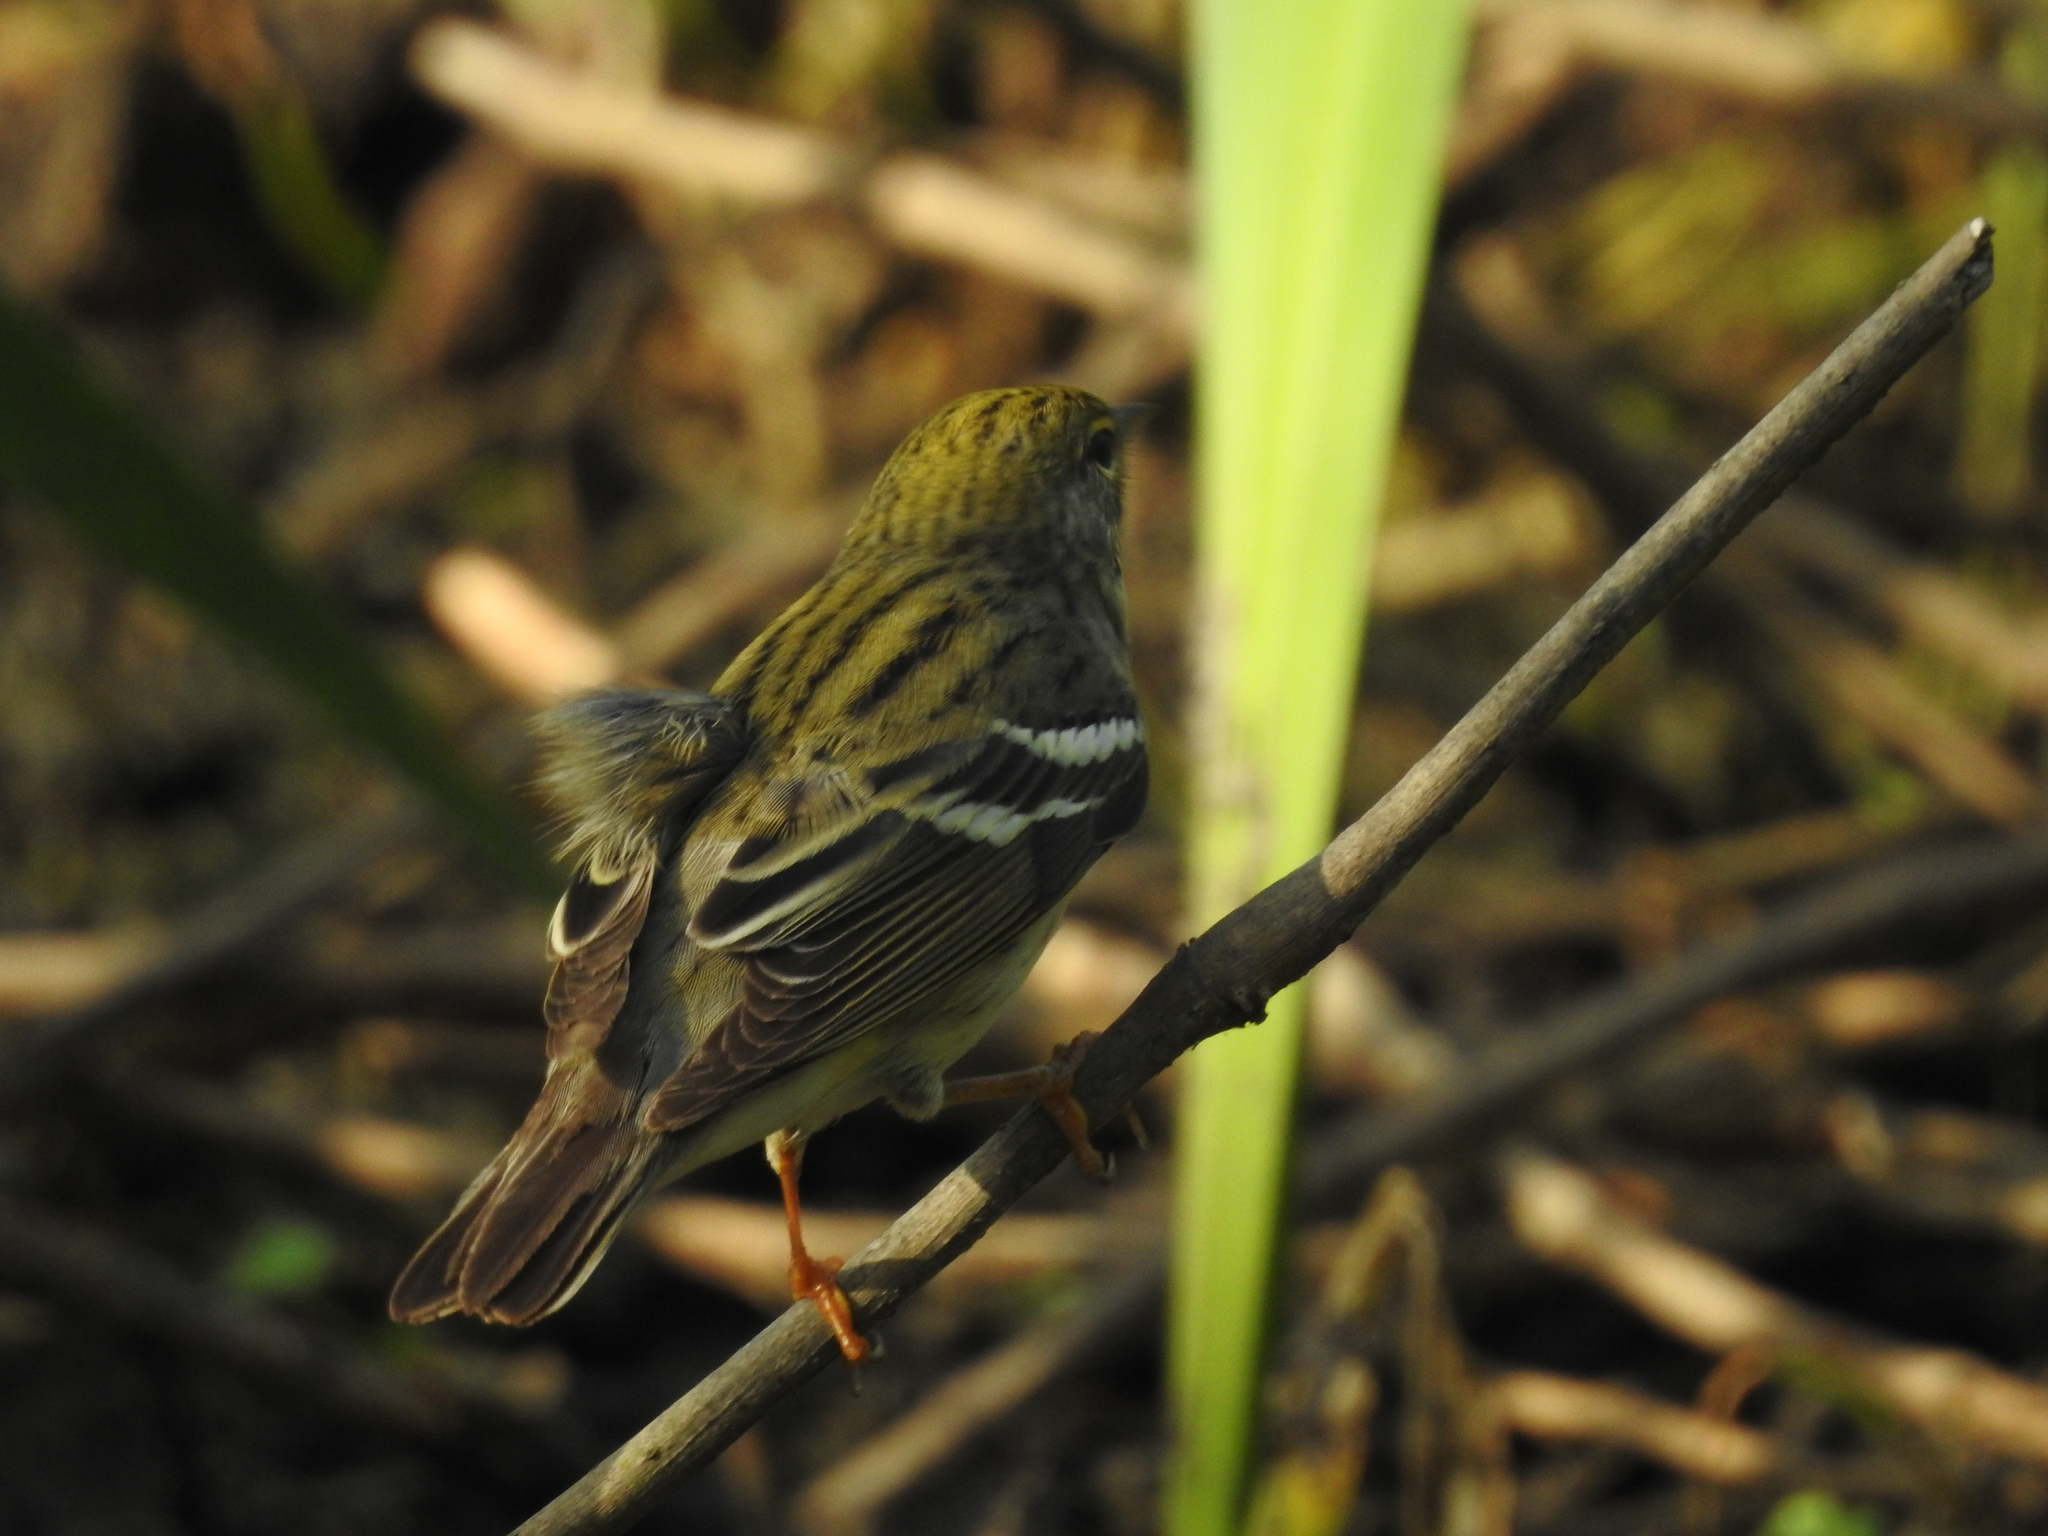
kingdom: Animalia
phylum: Chordata
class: Aves
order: Passeriformes
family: Parulidae
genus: Setophaga
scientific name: Setophaga striata
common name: Blackpoll warbler
